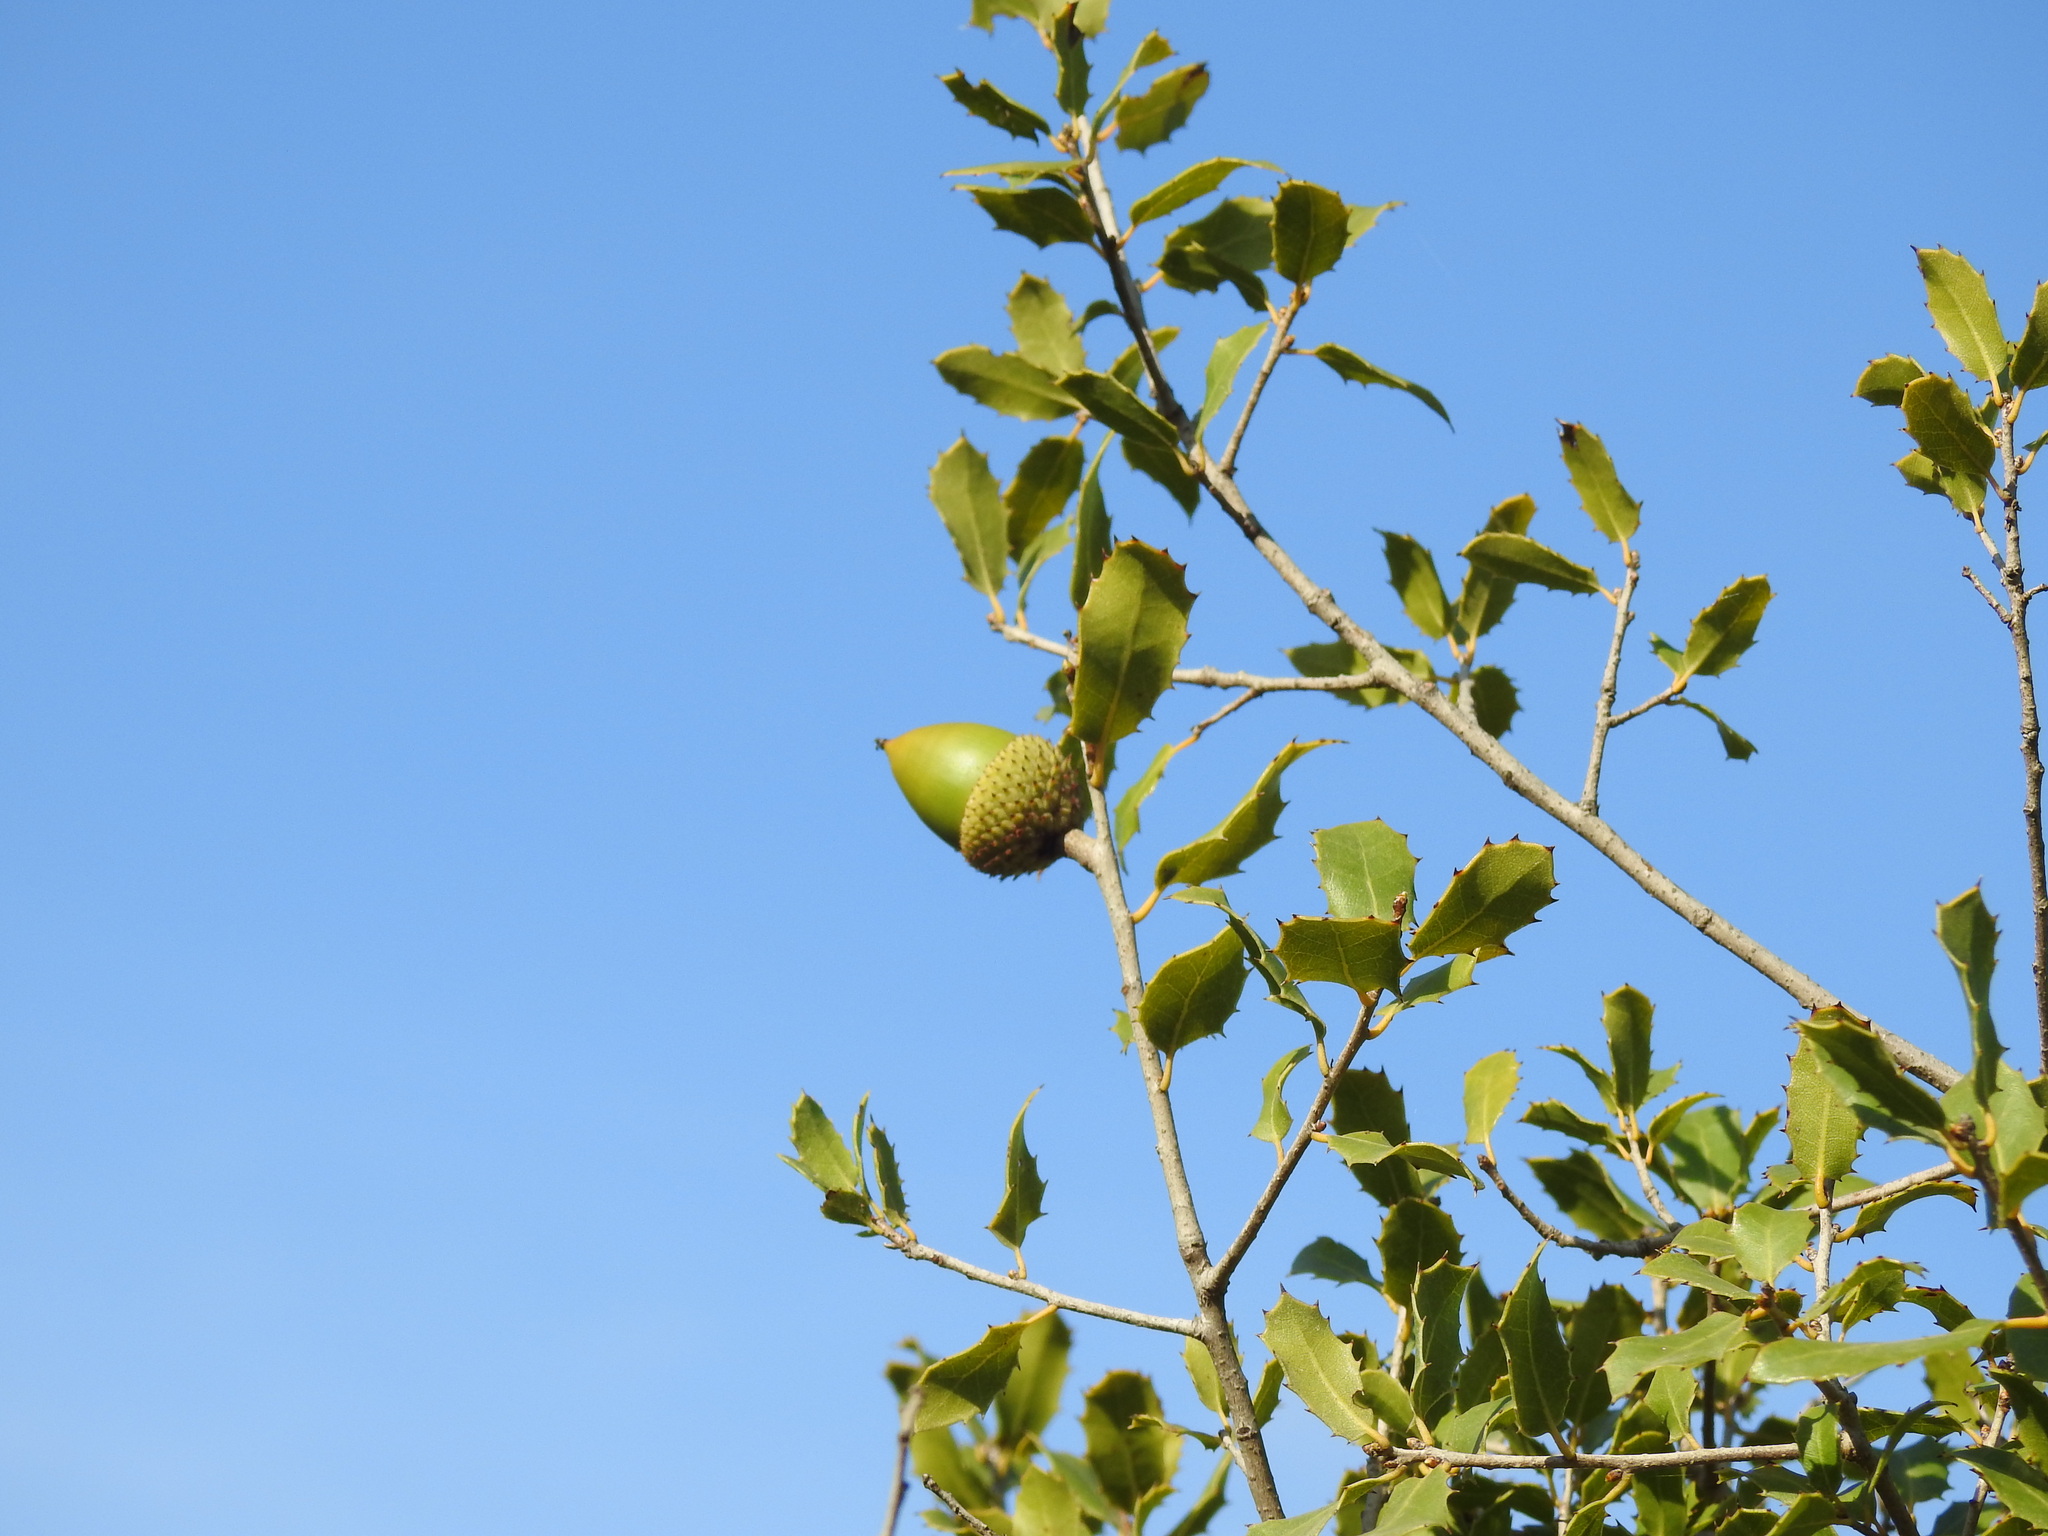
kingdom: Plantae
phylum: Tracheophyta
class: Magnoliopsida
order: Fagales
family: Fagaceae
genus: Quercus
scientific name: Quercus coccifera
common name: Kermes oak
